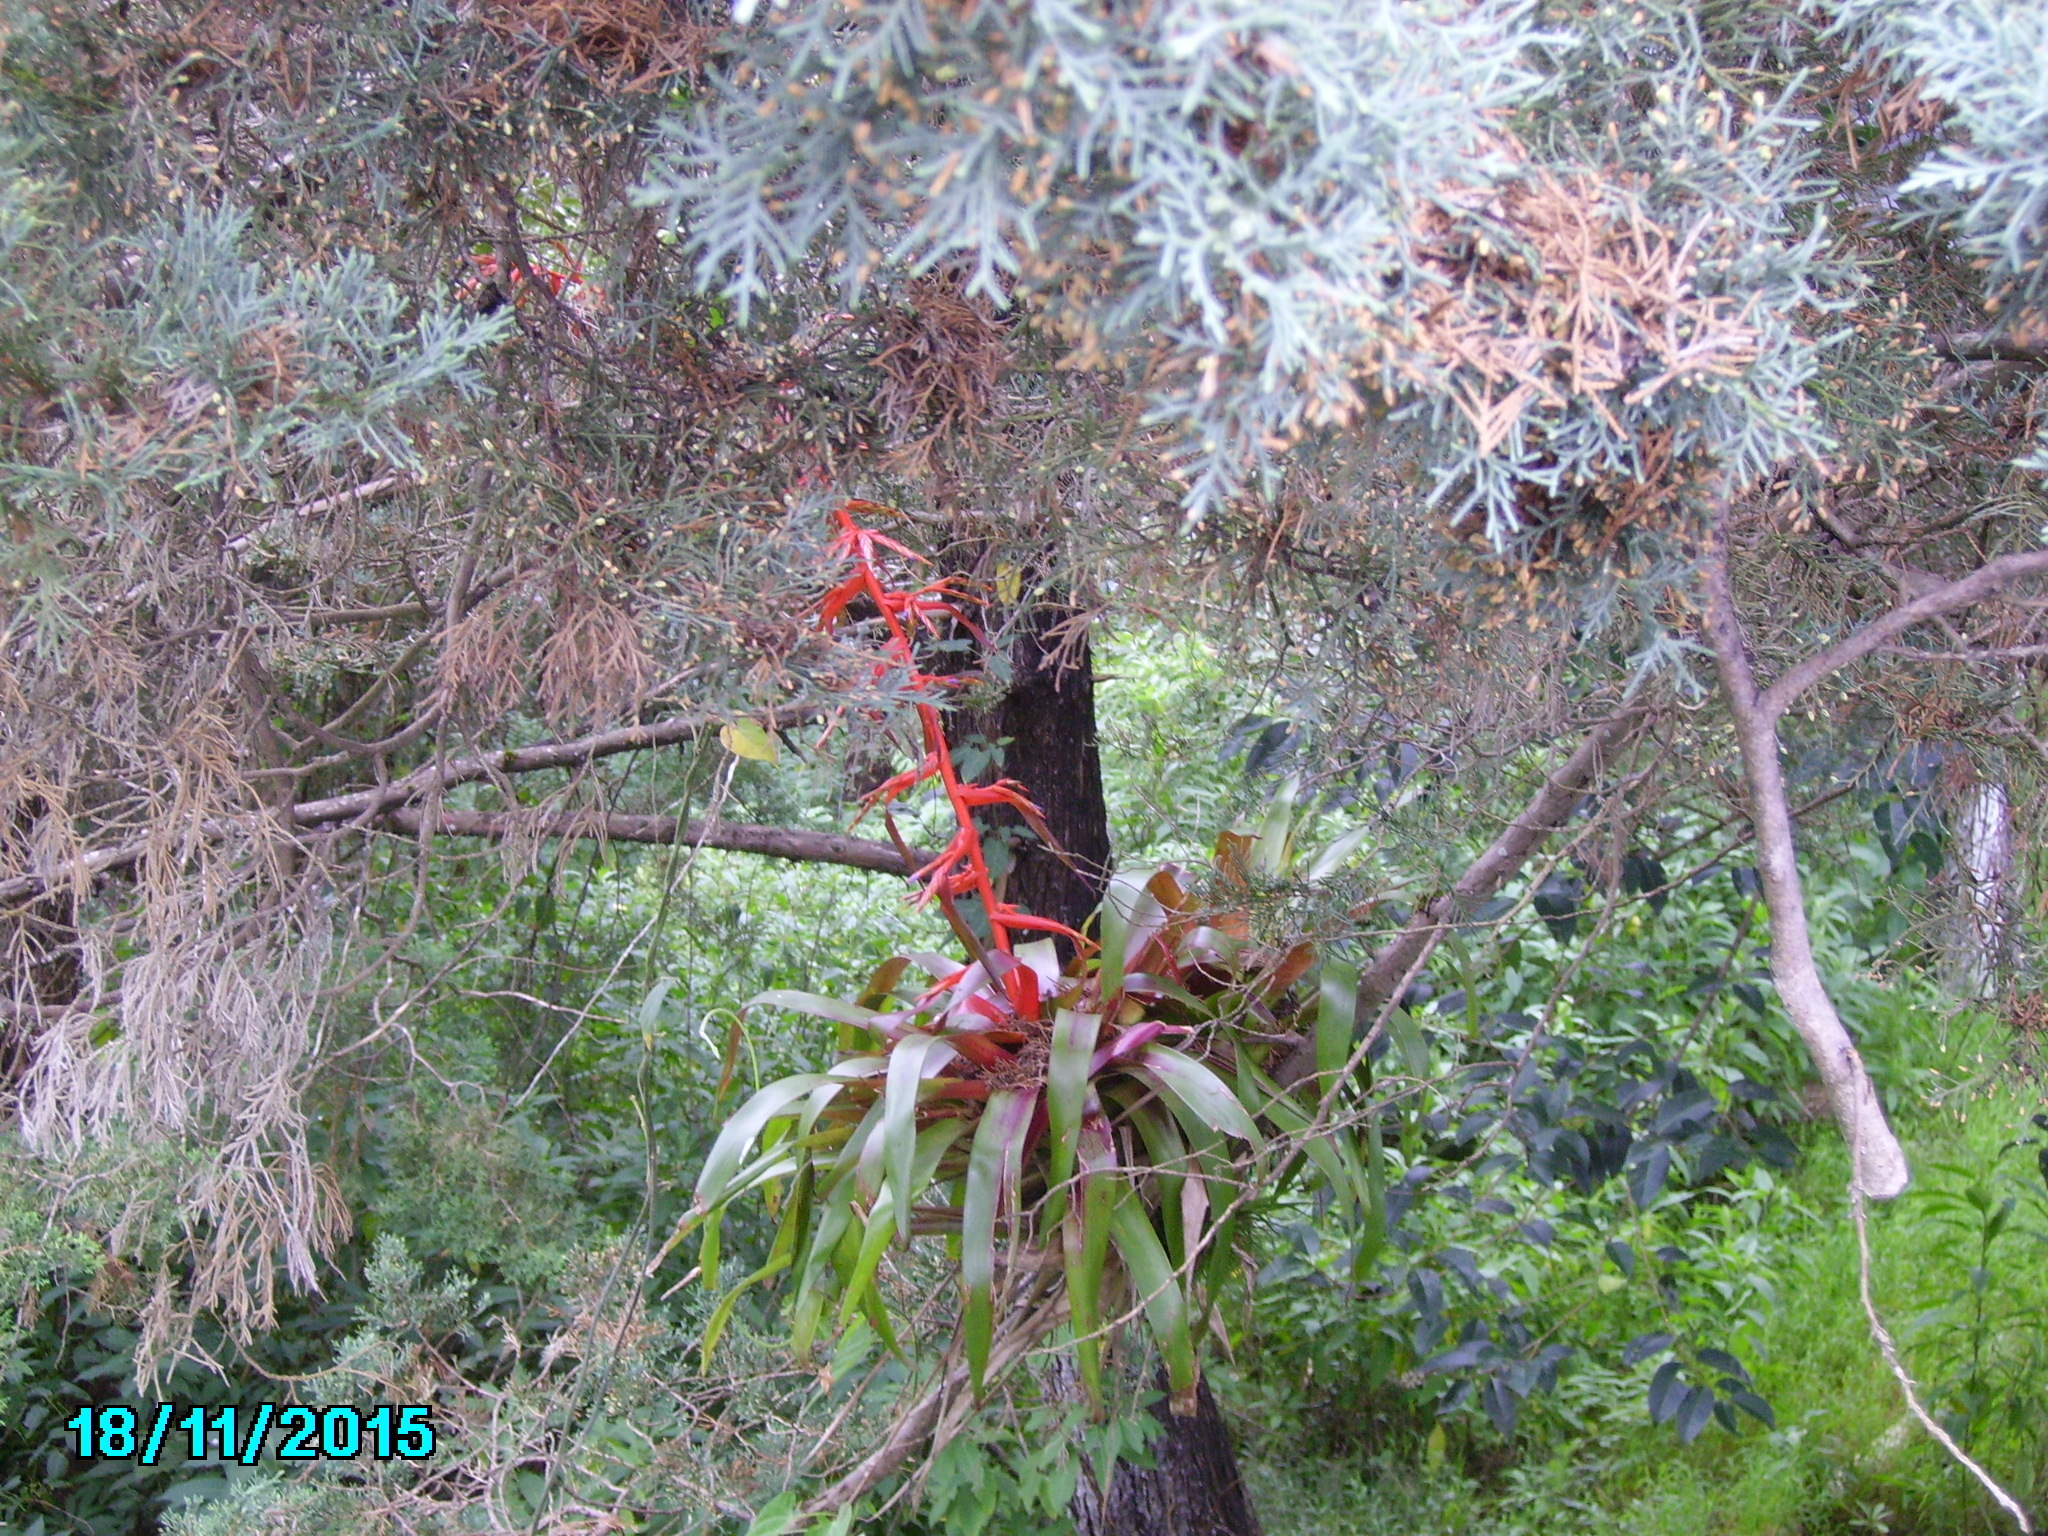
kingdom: Plantae
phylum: Tracheophyta
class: Liliopsida
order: Poales
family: Bromeliaceae
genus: Tillandsia
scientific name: Tillandsia guatemalensis
